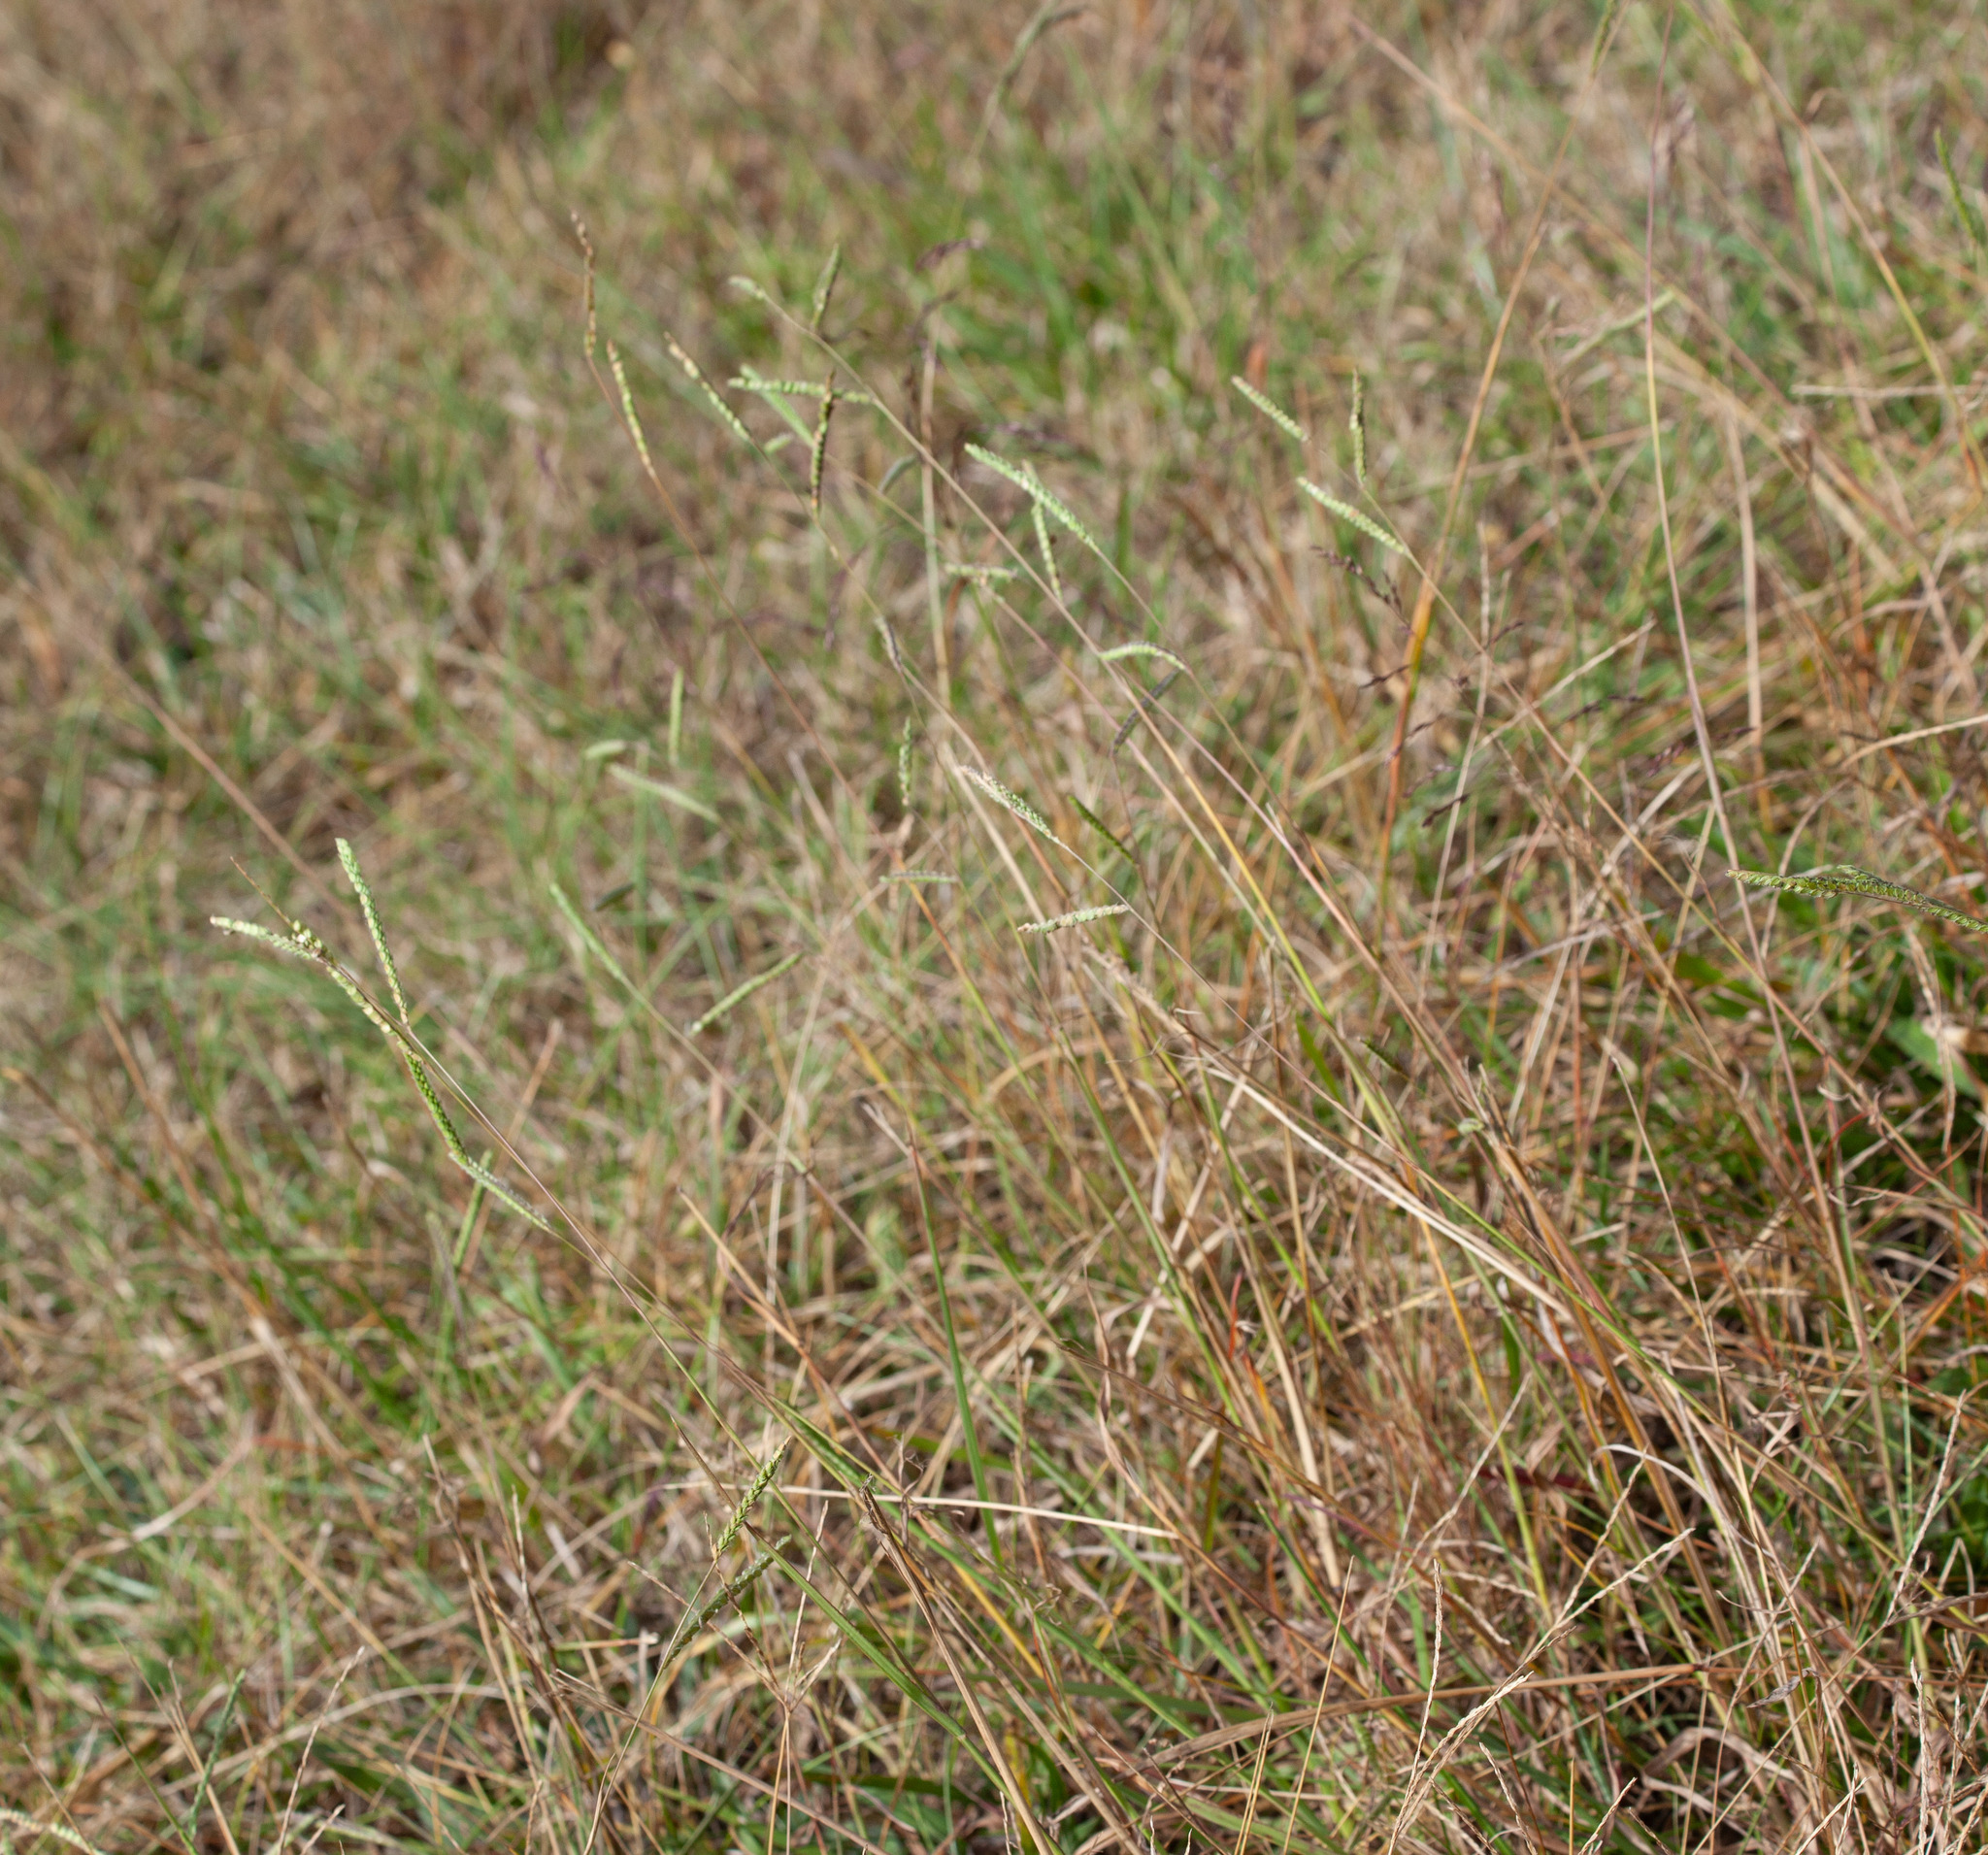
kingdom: Plantae
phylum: Tracheophyta
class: Liliopsida
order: Poales
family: Poaceae
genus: Paspalum
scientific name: Paspalum dilatatum
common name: Dallisgrass
